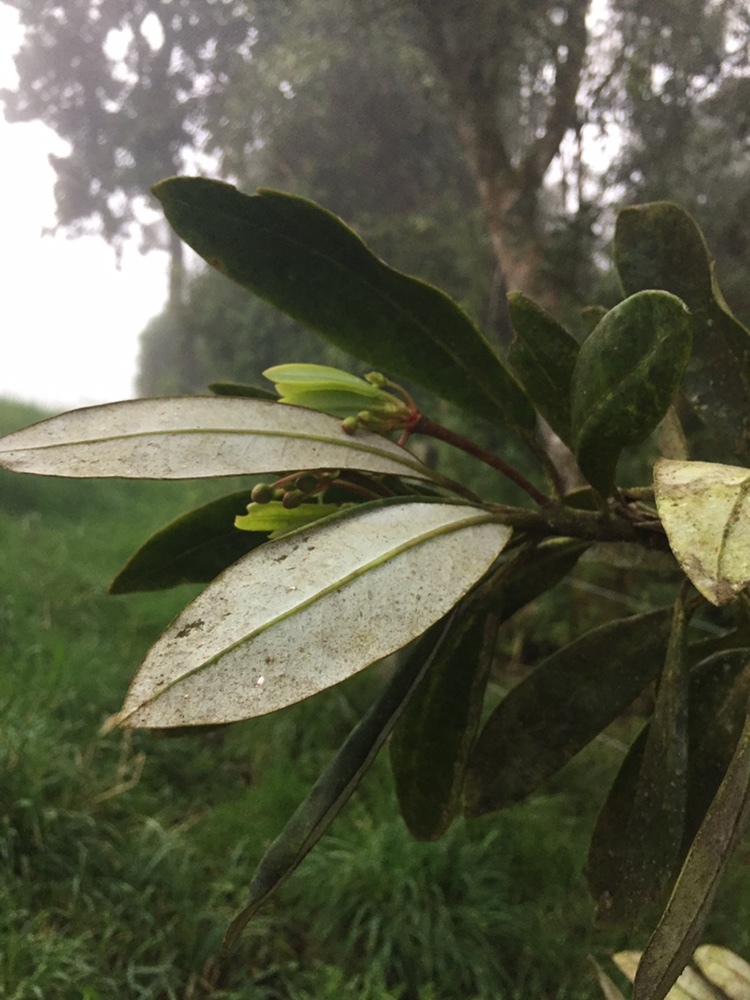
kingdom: Plantae
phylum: Tracheophyta
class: Magnoliopsida
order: Canellales
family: Winteraceae
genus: Drimys
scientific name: Drimys granadensis
